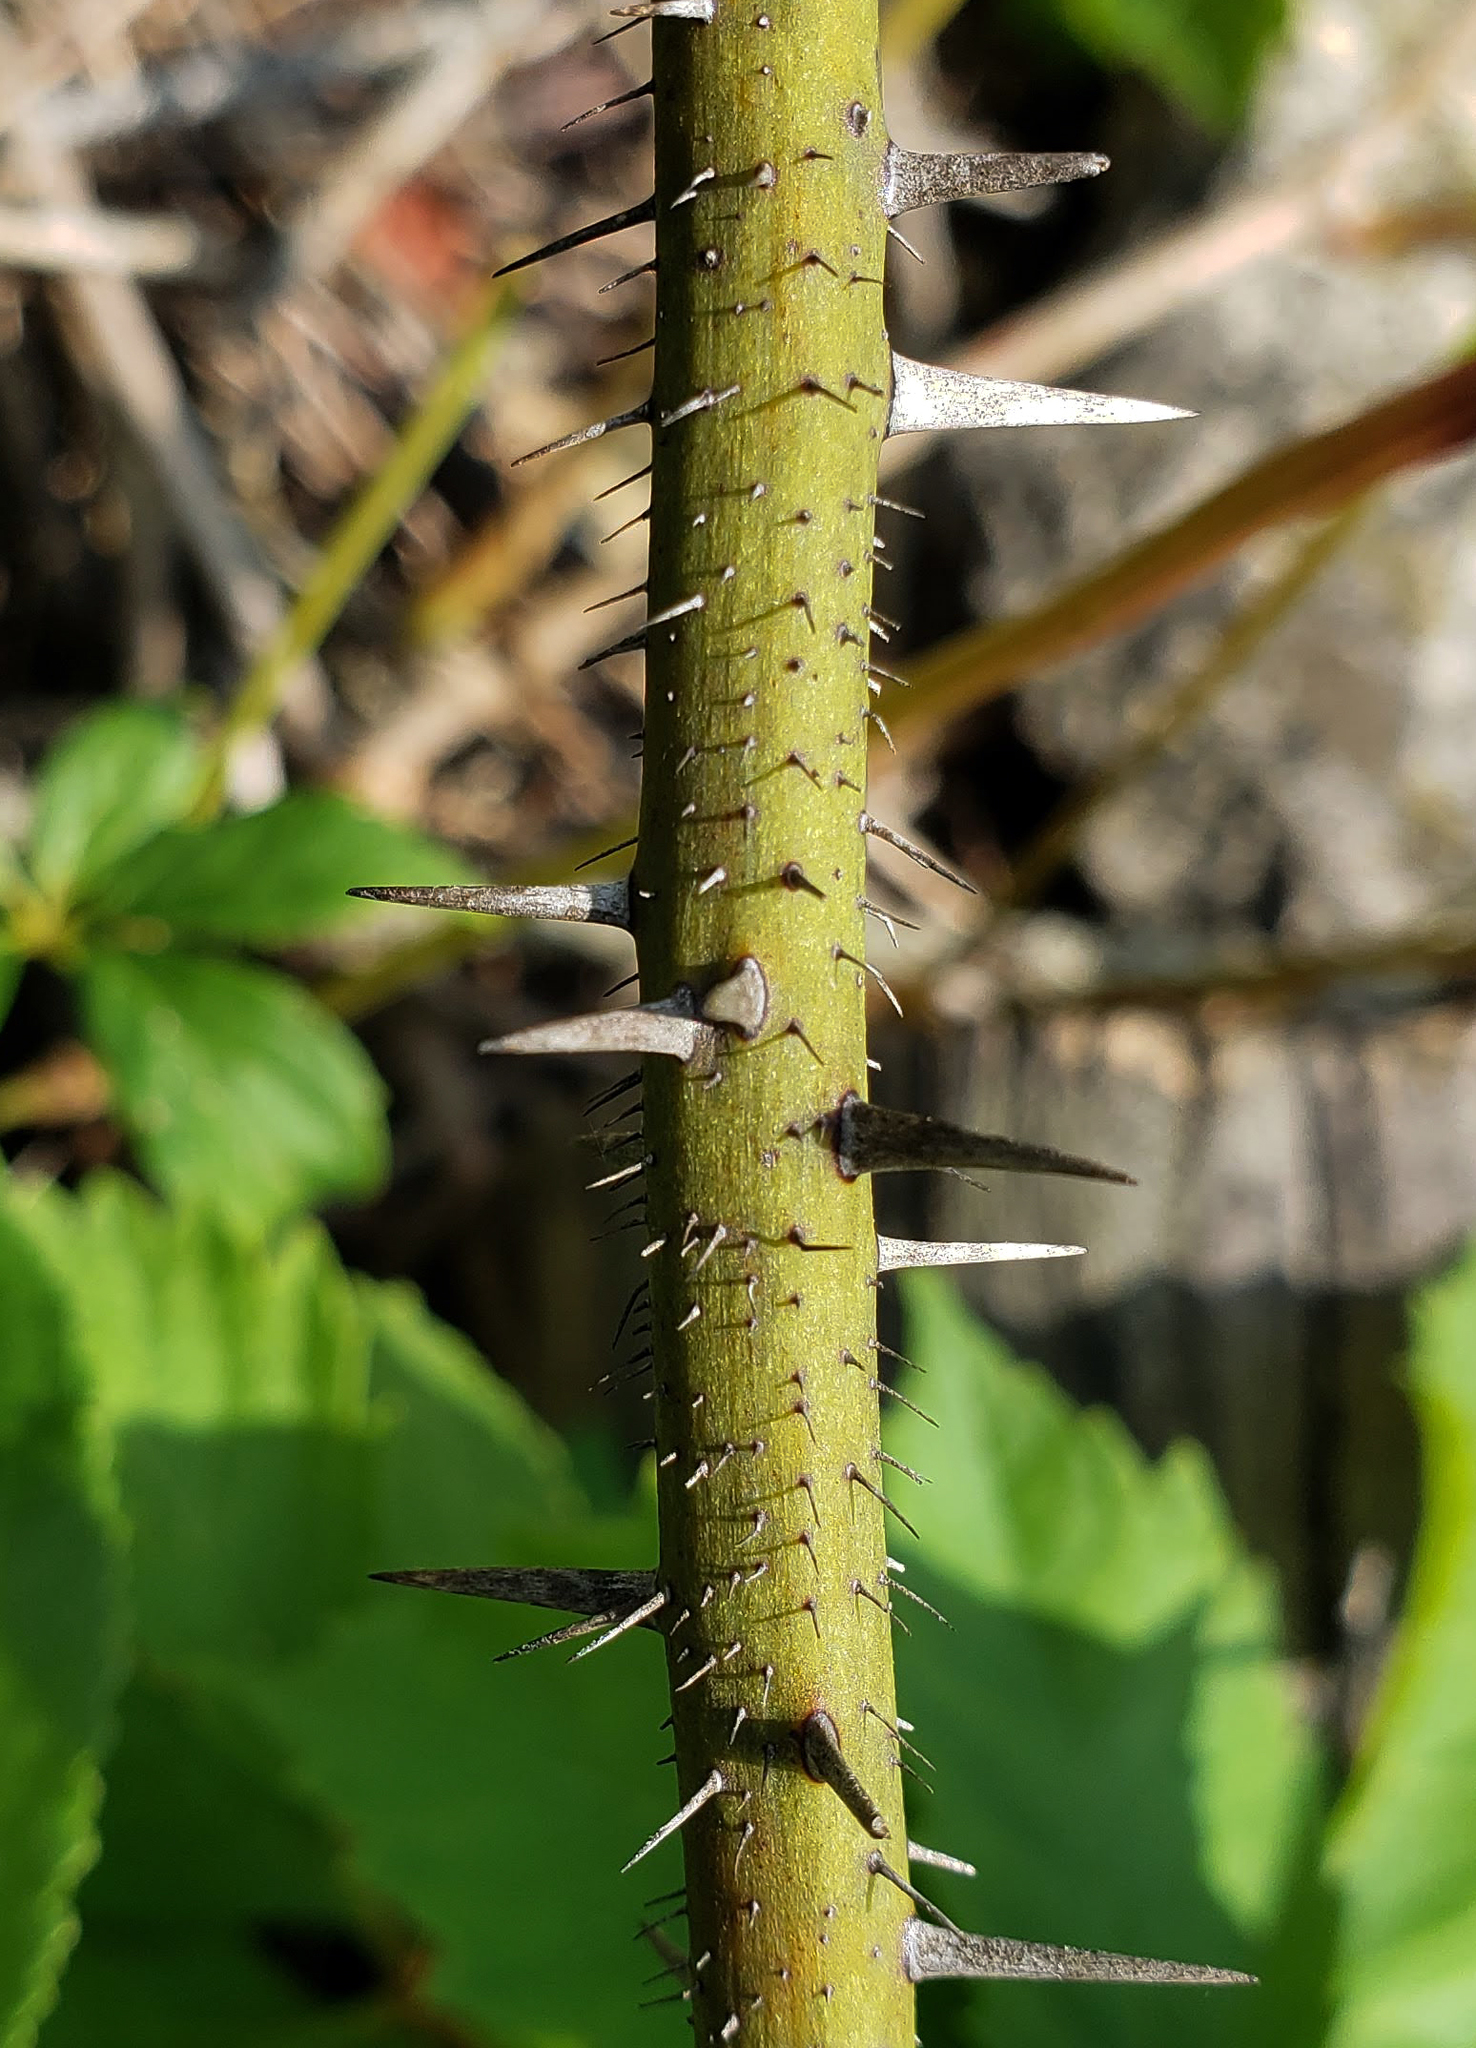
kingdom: Plantae
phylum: Tracheophyta
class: Liliopsida
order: Liliales
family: Smilacaceae
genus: Smilax
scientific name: Smilax tamnoides
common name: Hellfetter
